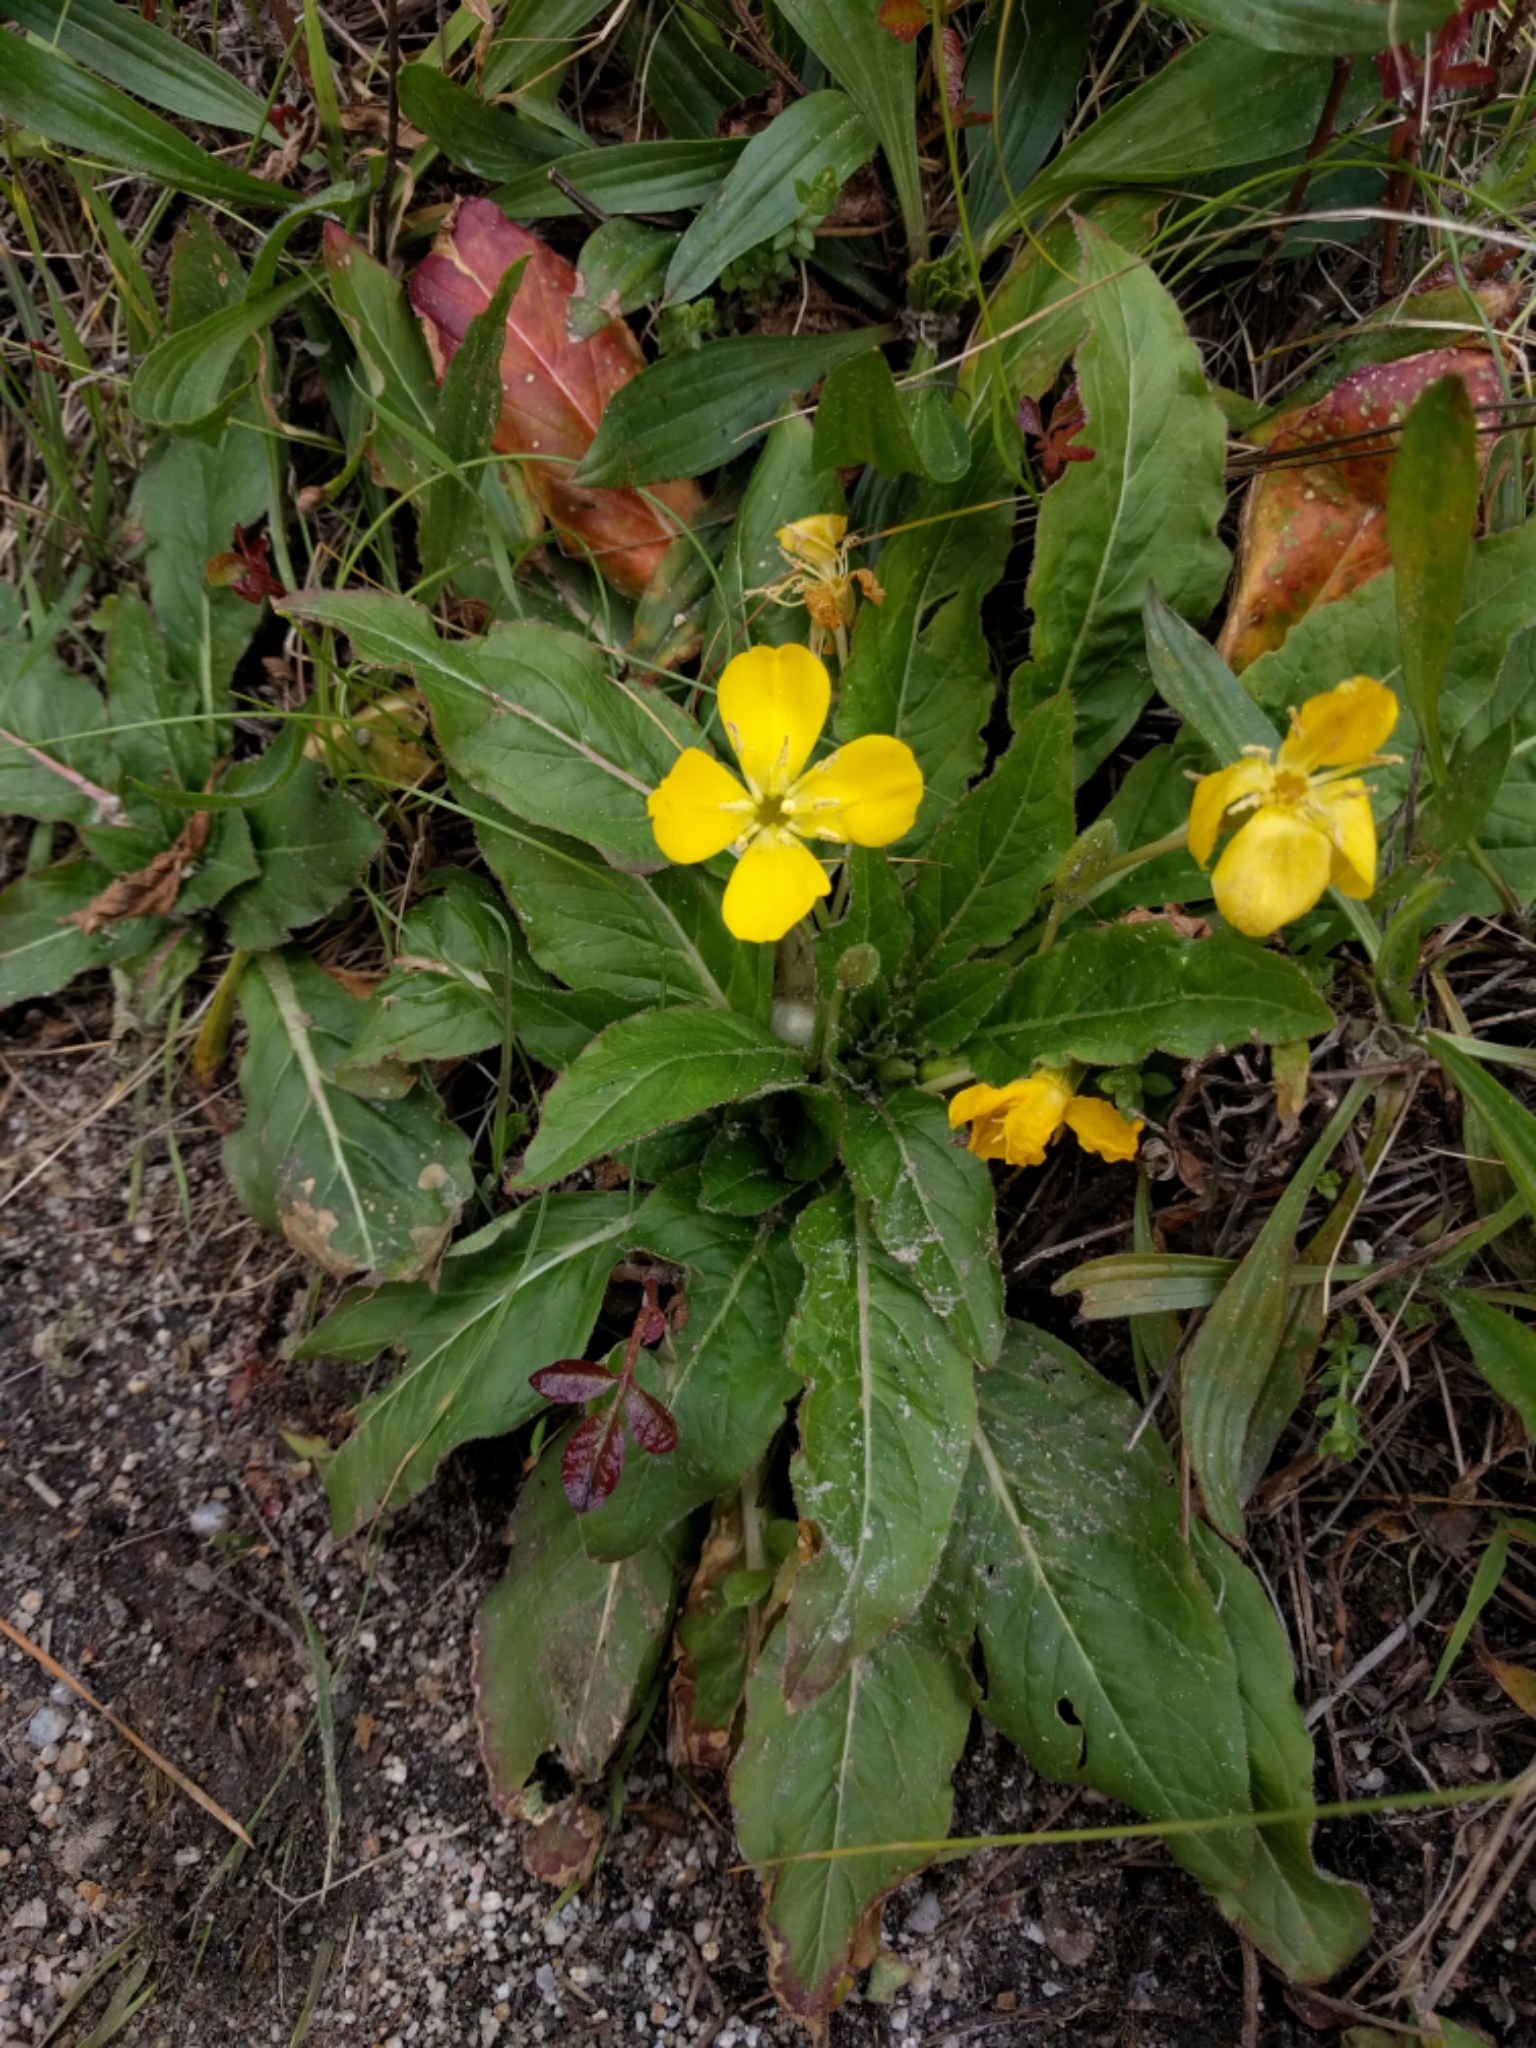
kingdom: Plantae
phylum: Tracheophyta
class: Magnoliopsida
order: Myrtales
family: Onagraceae
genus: Taraxia
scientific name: Taraxia ovata
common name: Goldeneggs
